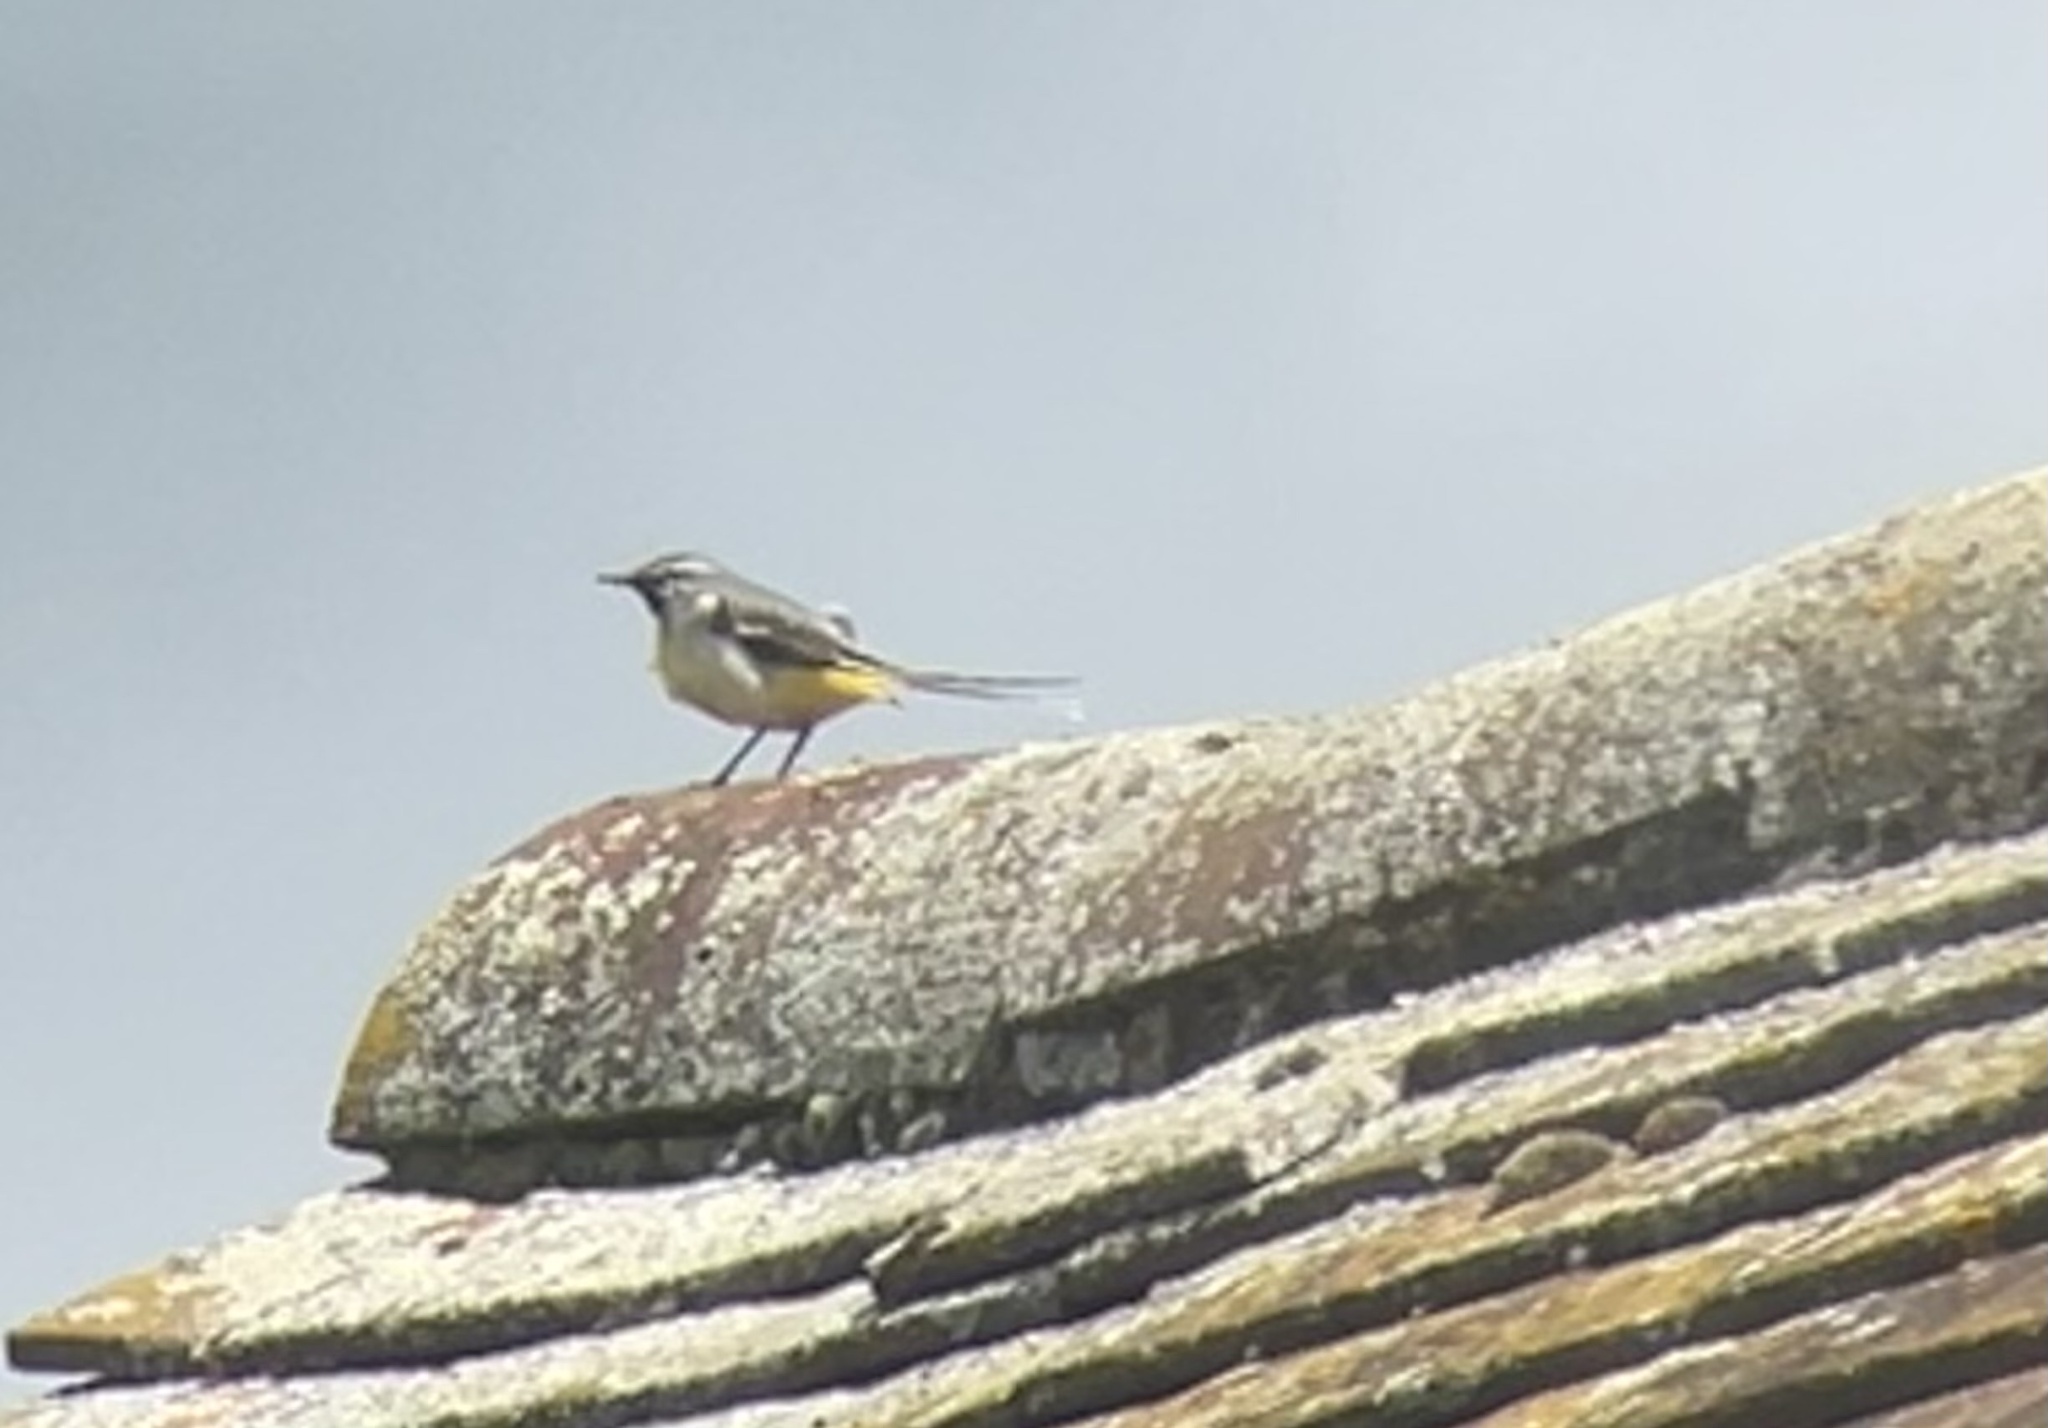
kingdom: Animalia
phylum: Chordata
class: Aves
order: Passeriformes
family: Motacillidae
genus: Motacilla
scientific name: Motacilla cinerea
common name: Grey wagtail
